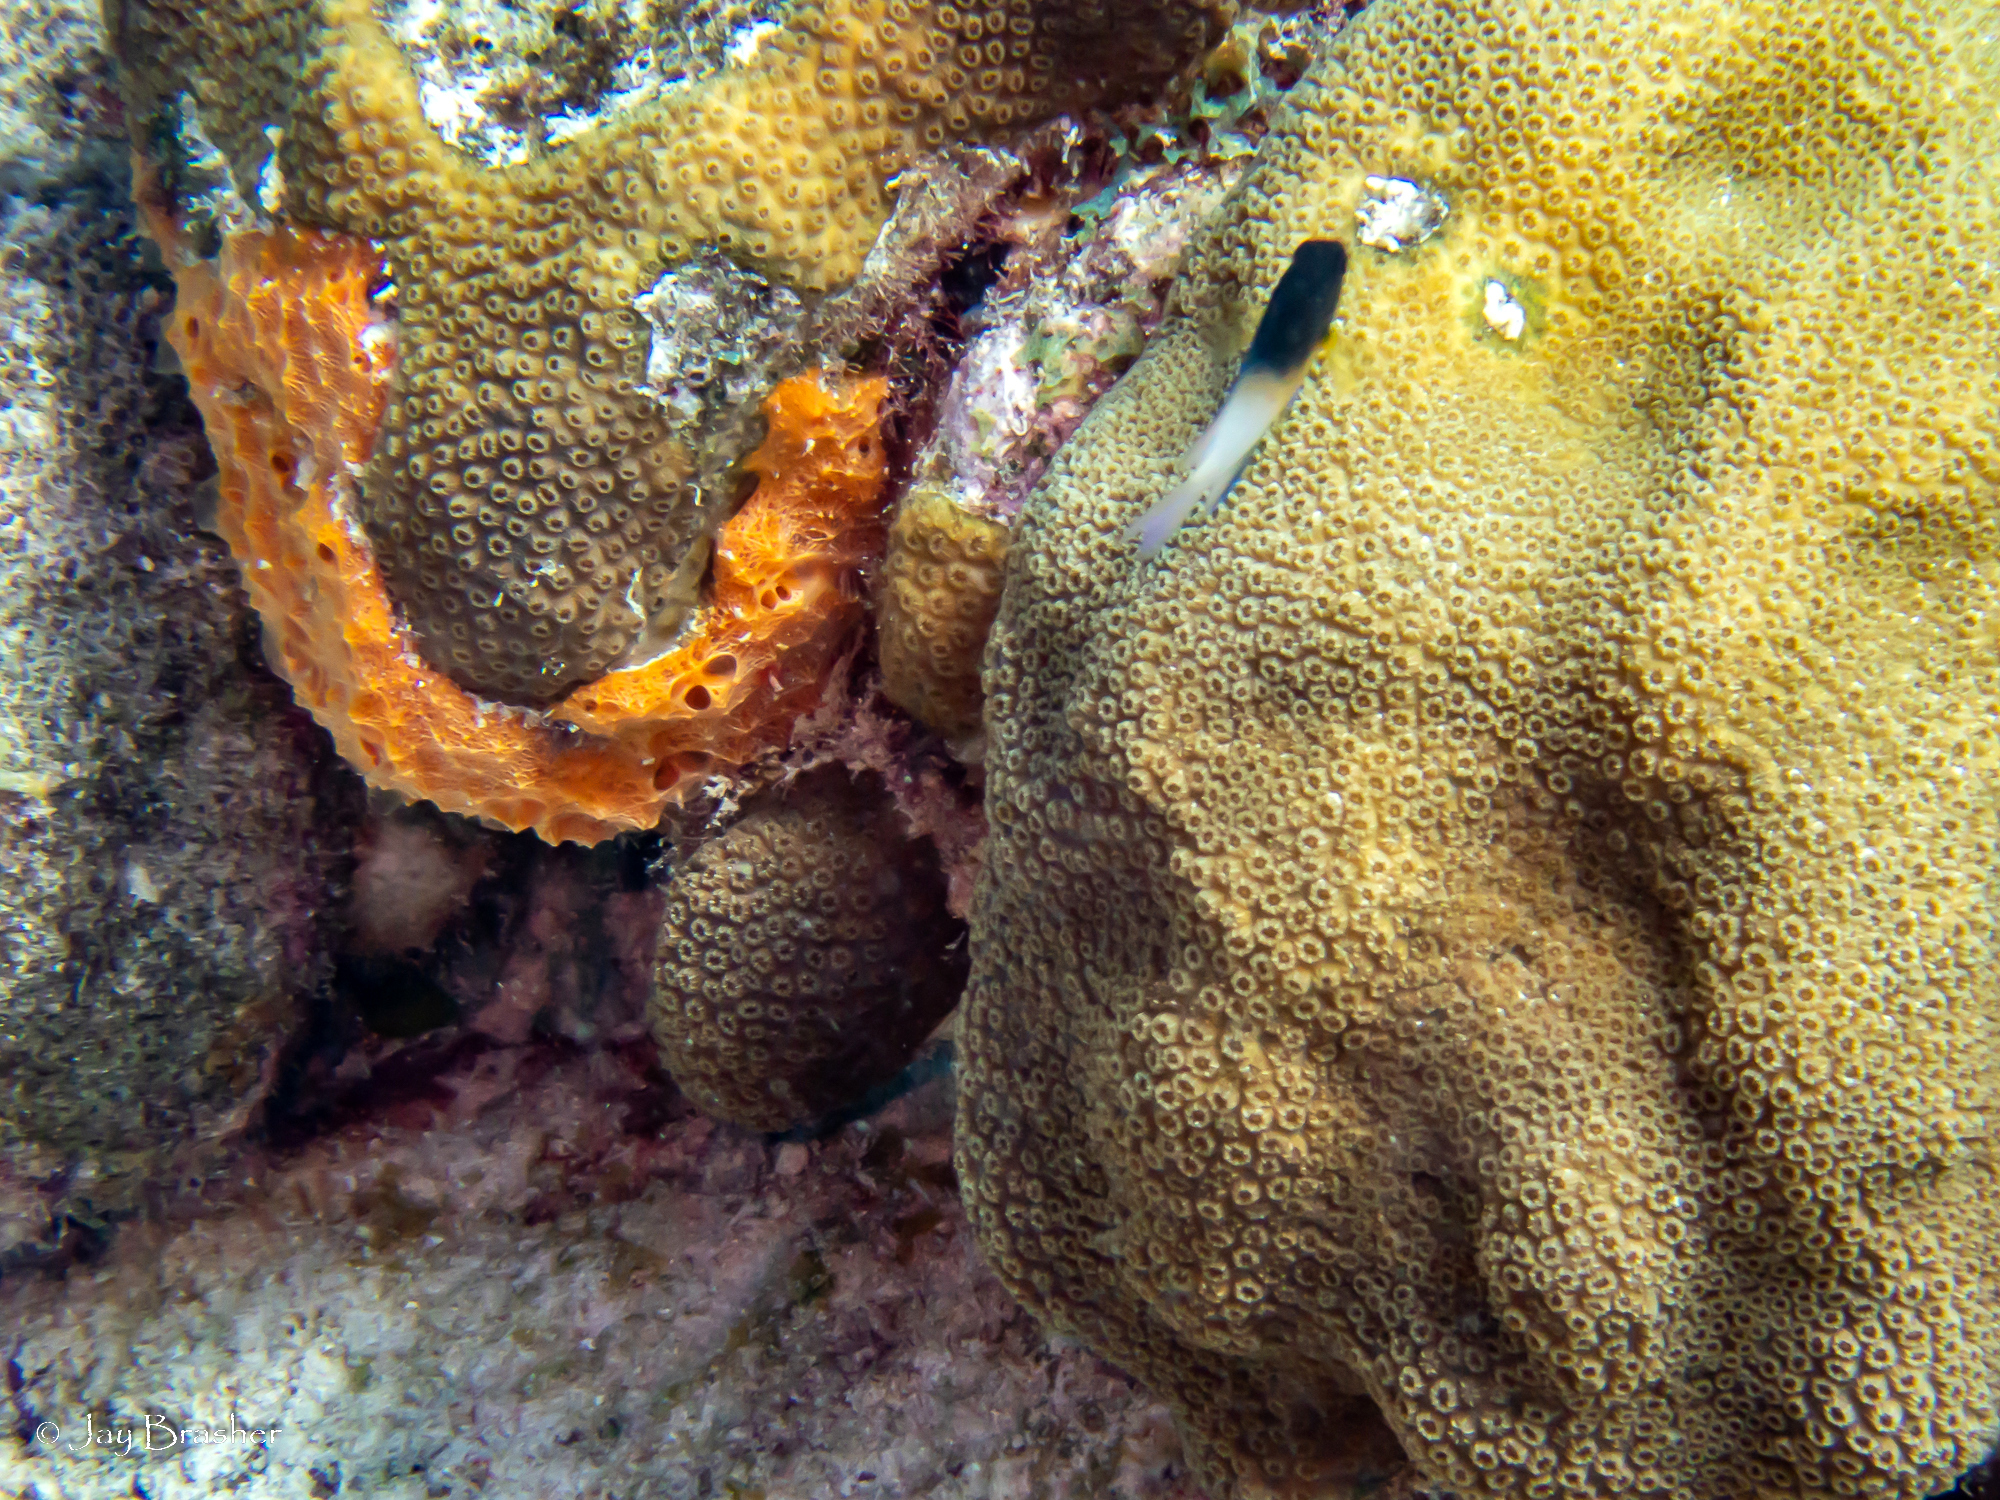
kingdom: Animalia
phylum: Chordata
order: Perciformes
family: Pomacentridae
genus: Stegastes
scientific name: Stegastes partitus
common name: Bicolor damselfish
